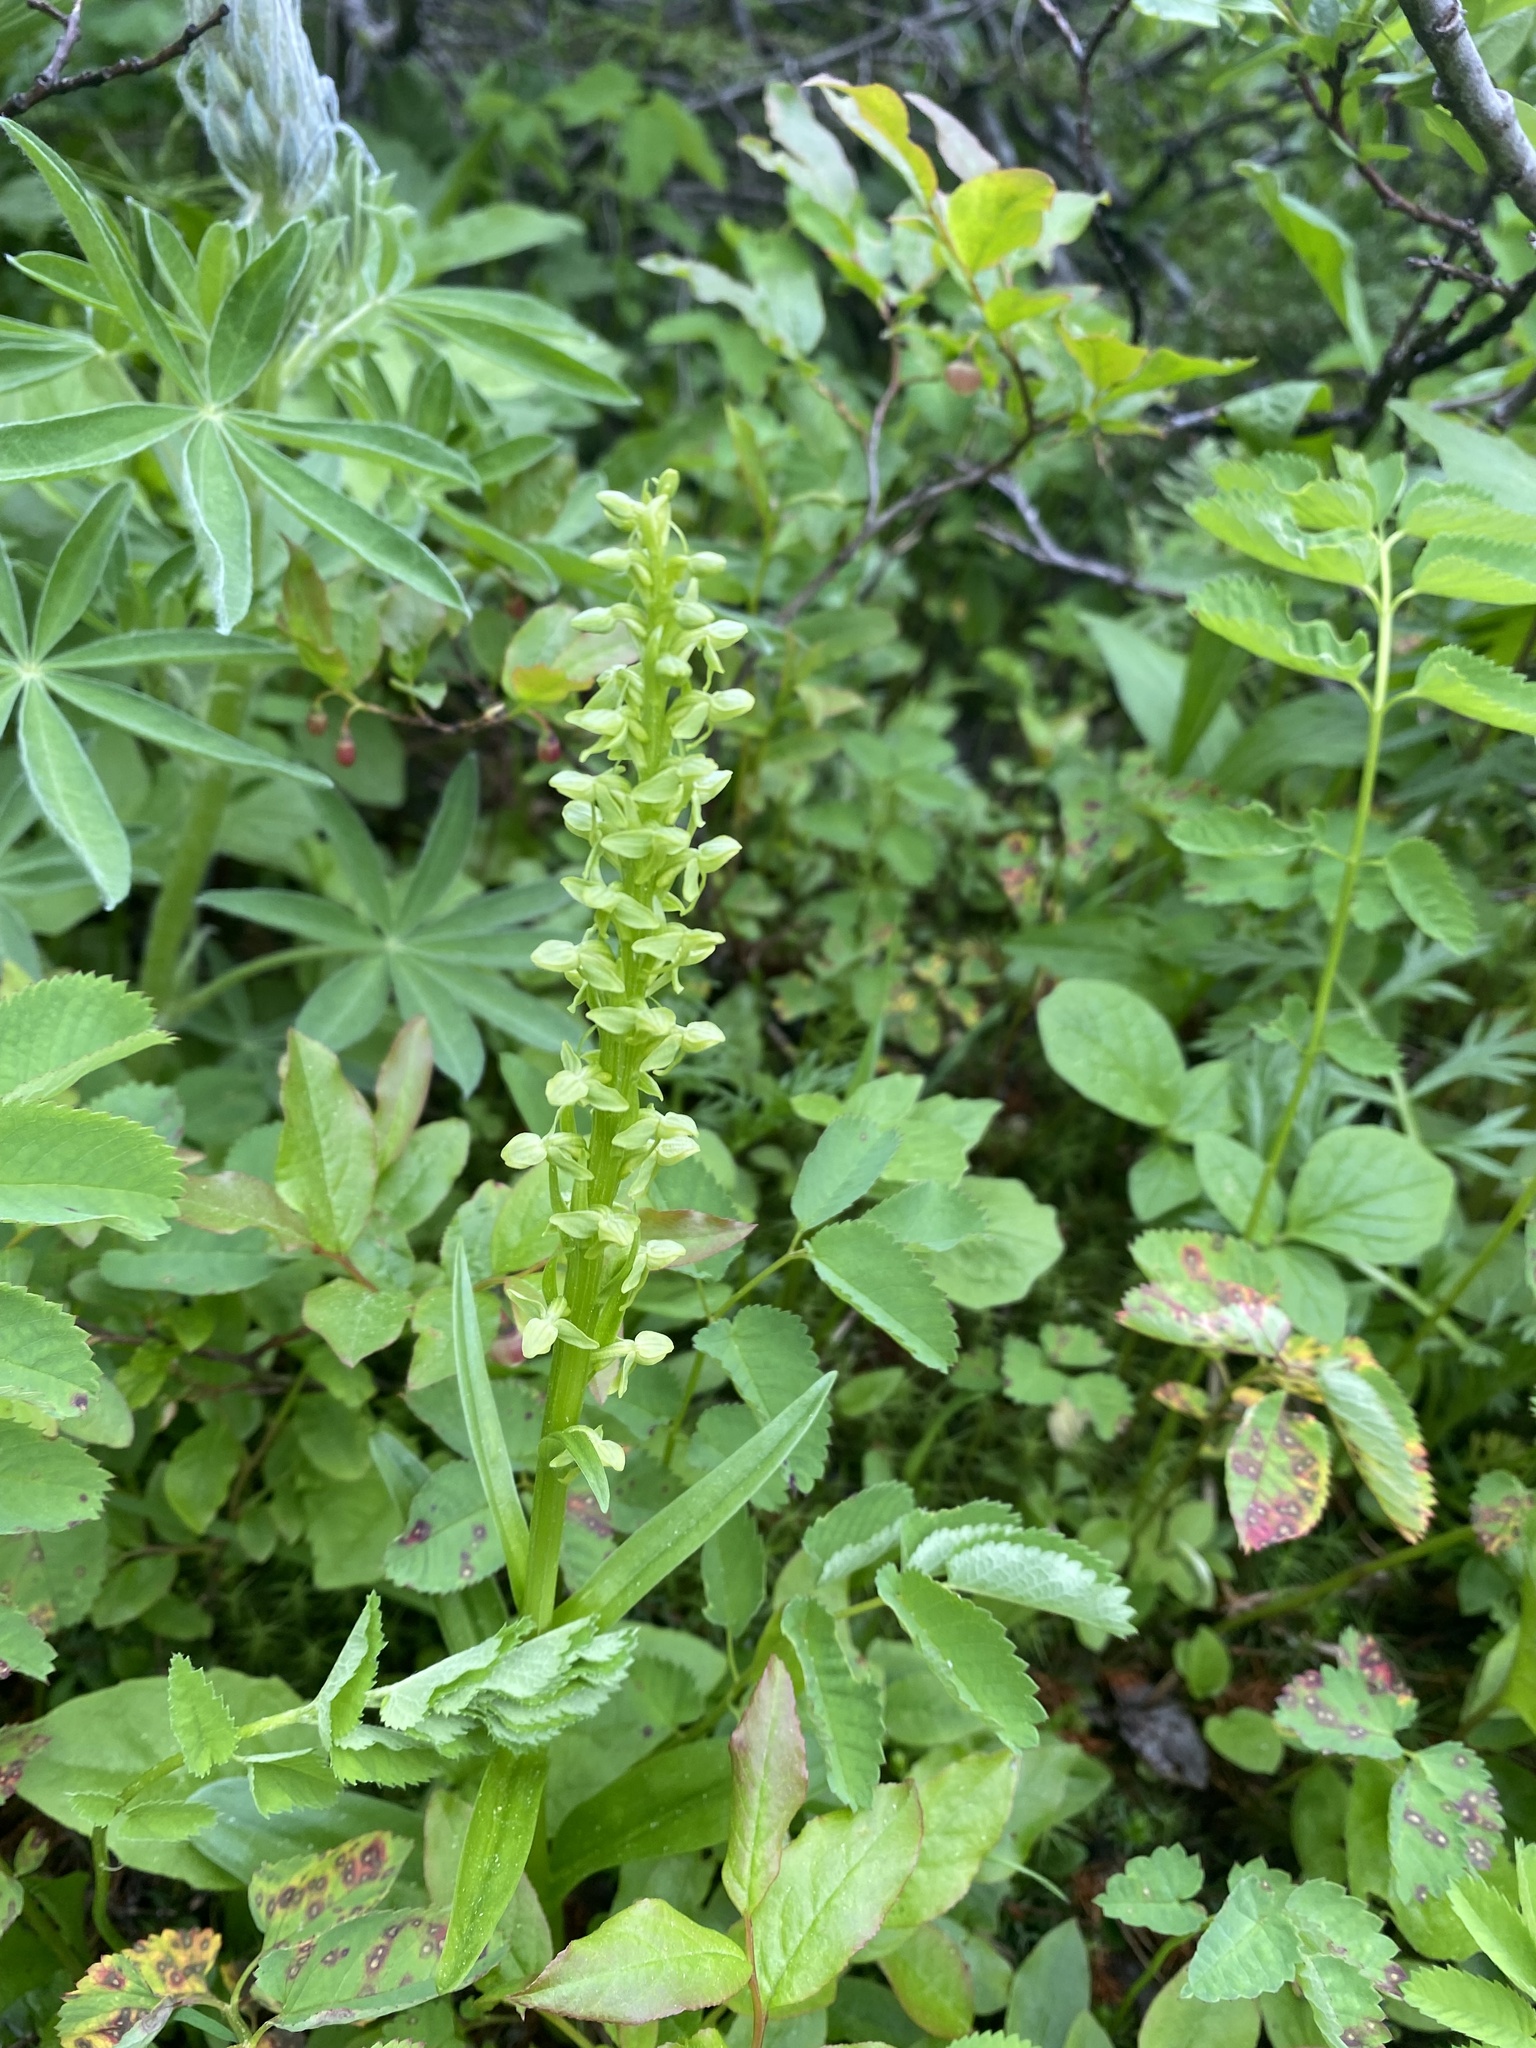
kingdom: Plantae
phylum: Tracheophyta
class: Liliopsida
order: Asparagales
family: Orchidaceae
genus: Platanthera
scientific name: Platanthera stricta
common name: Slender bog orchid
